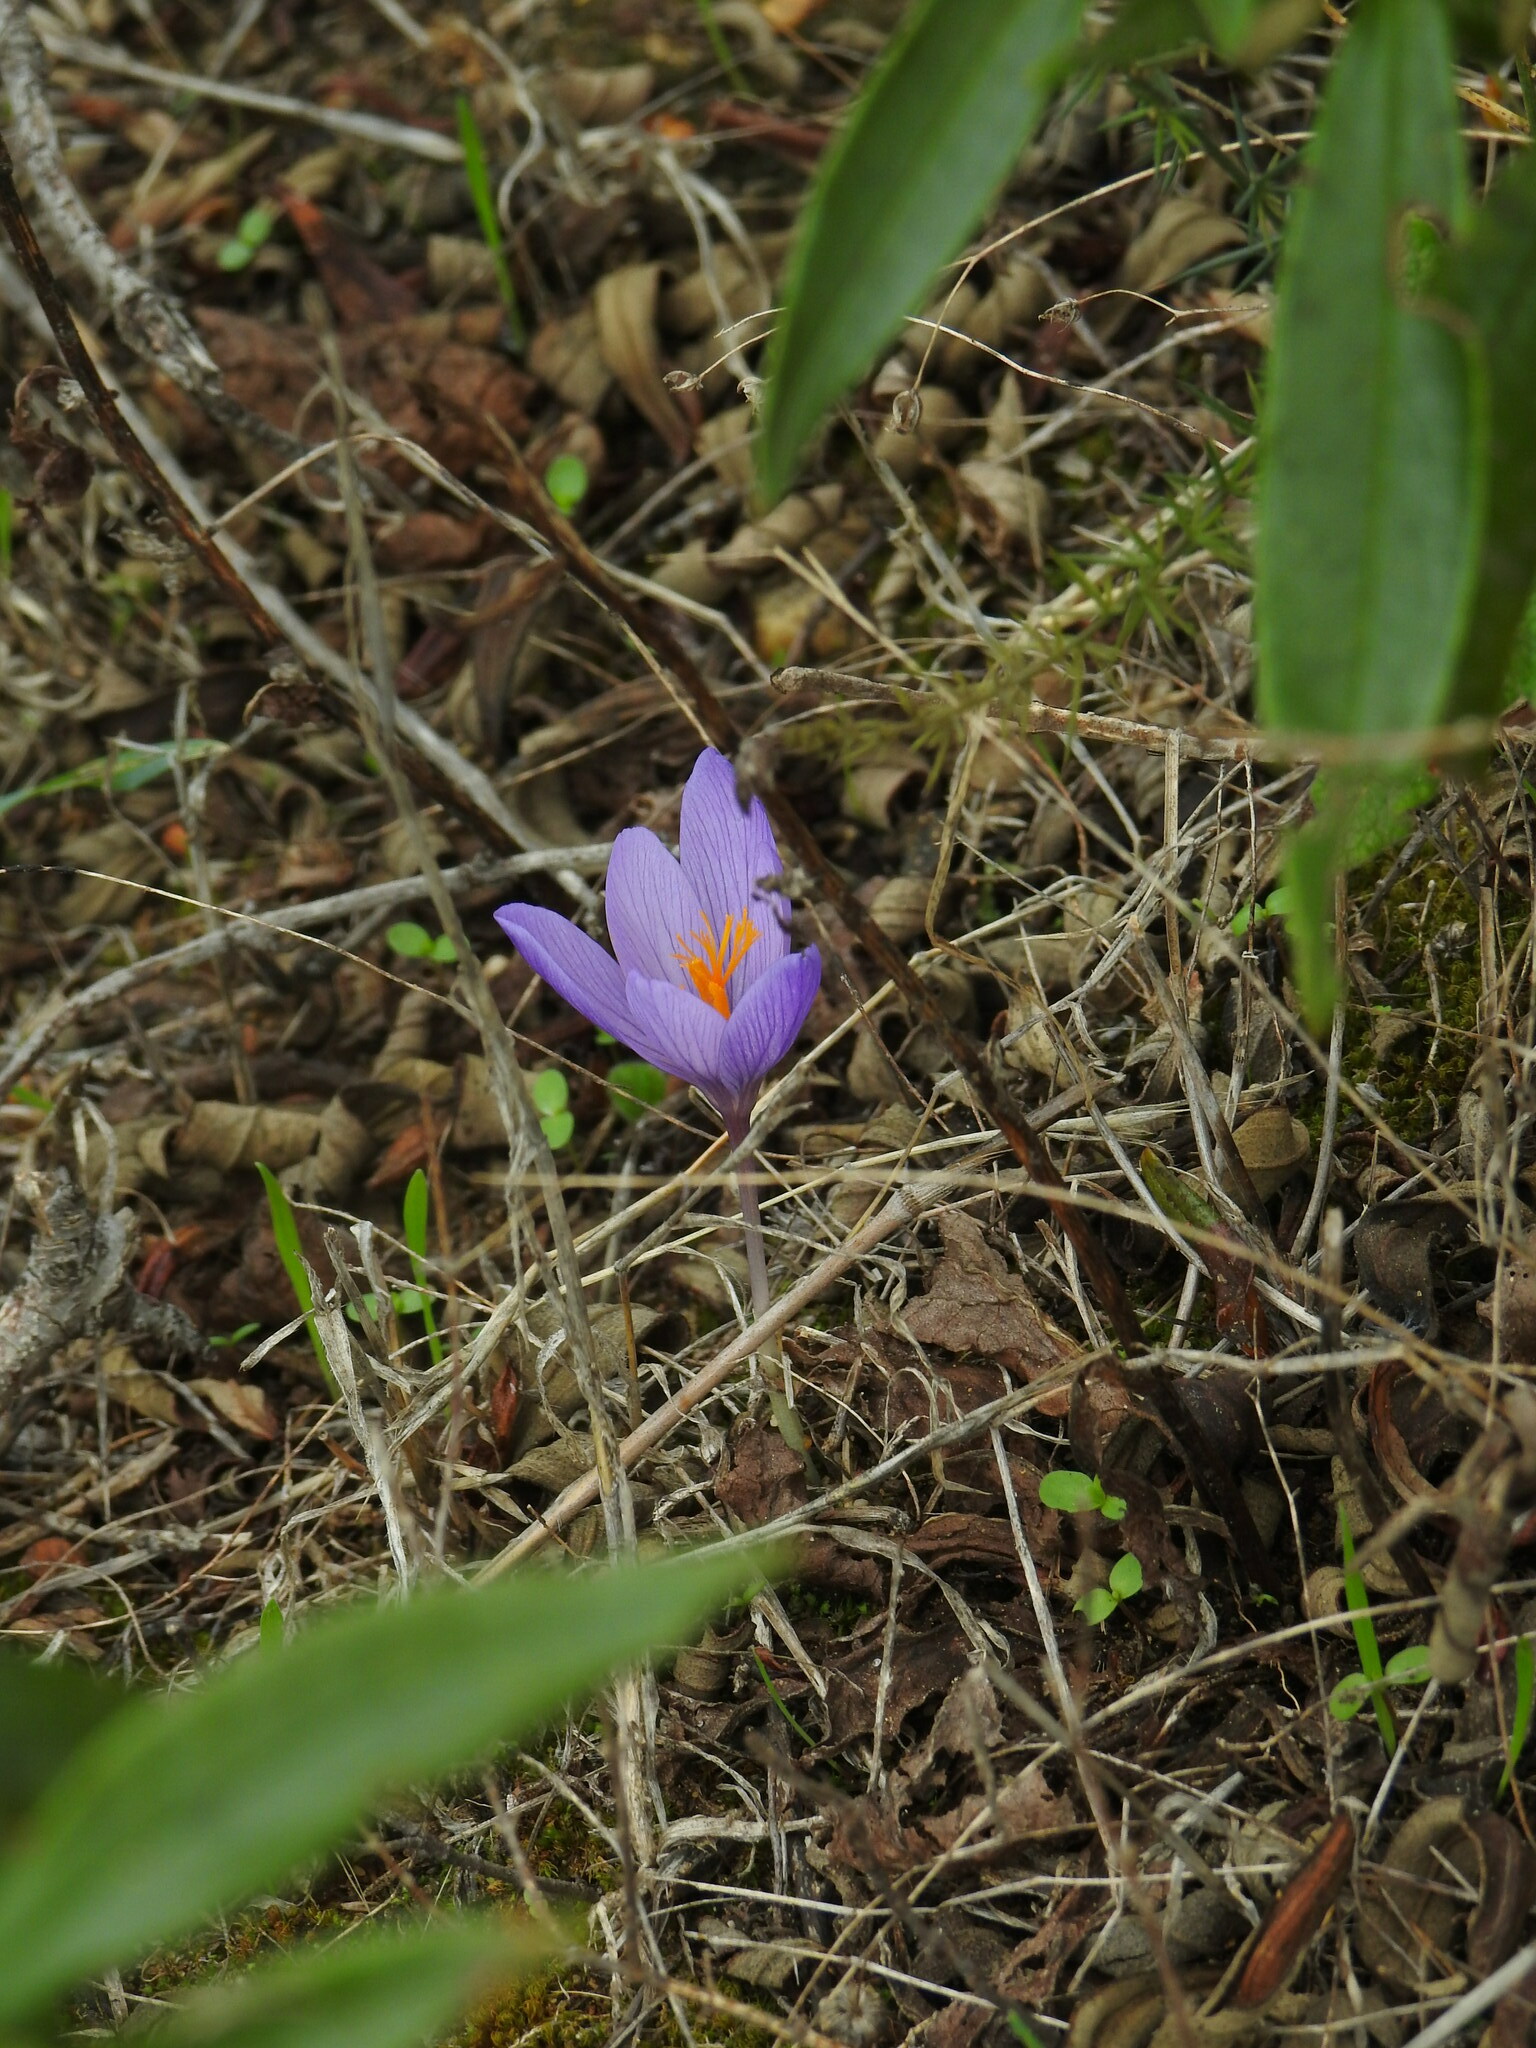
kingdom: Plantae
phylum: Tracheophyta
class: Liliopsida
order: Asparagales
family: Iridaceae
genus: Crocus
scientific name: Crocus serotinus
